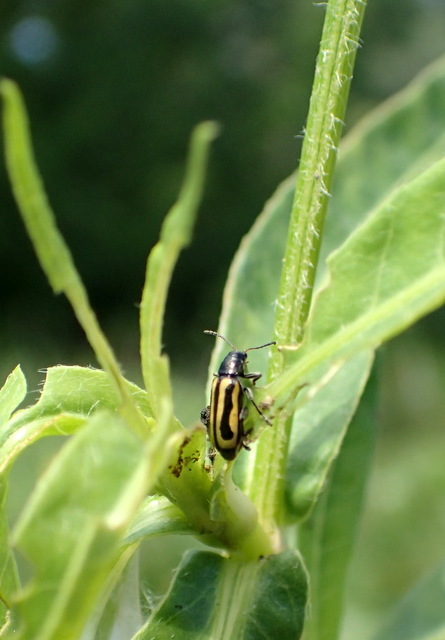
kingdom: Animalia
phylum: Arthropoda
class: Insecta
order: Coleoptera
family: Chrysomelidae
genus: Agasicles
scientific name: Agasicles hygrophila
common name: Alligatorweed flea beetle
